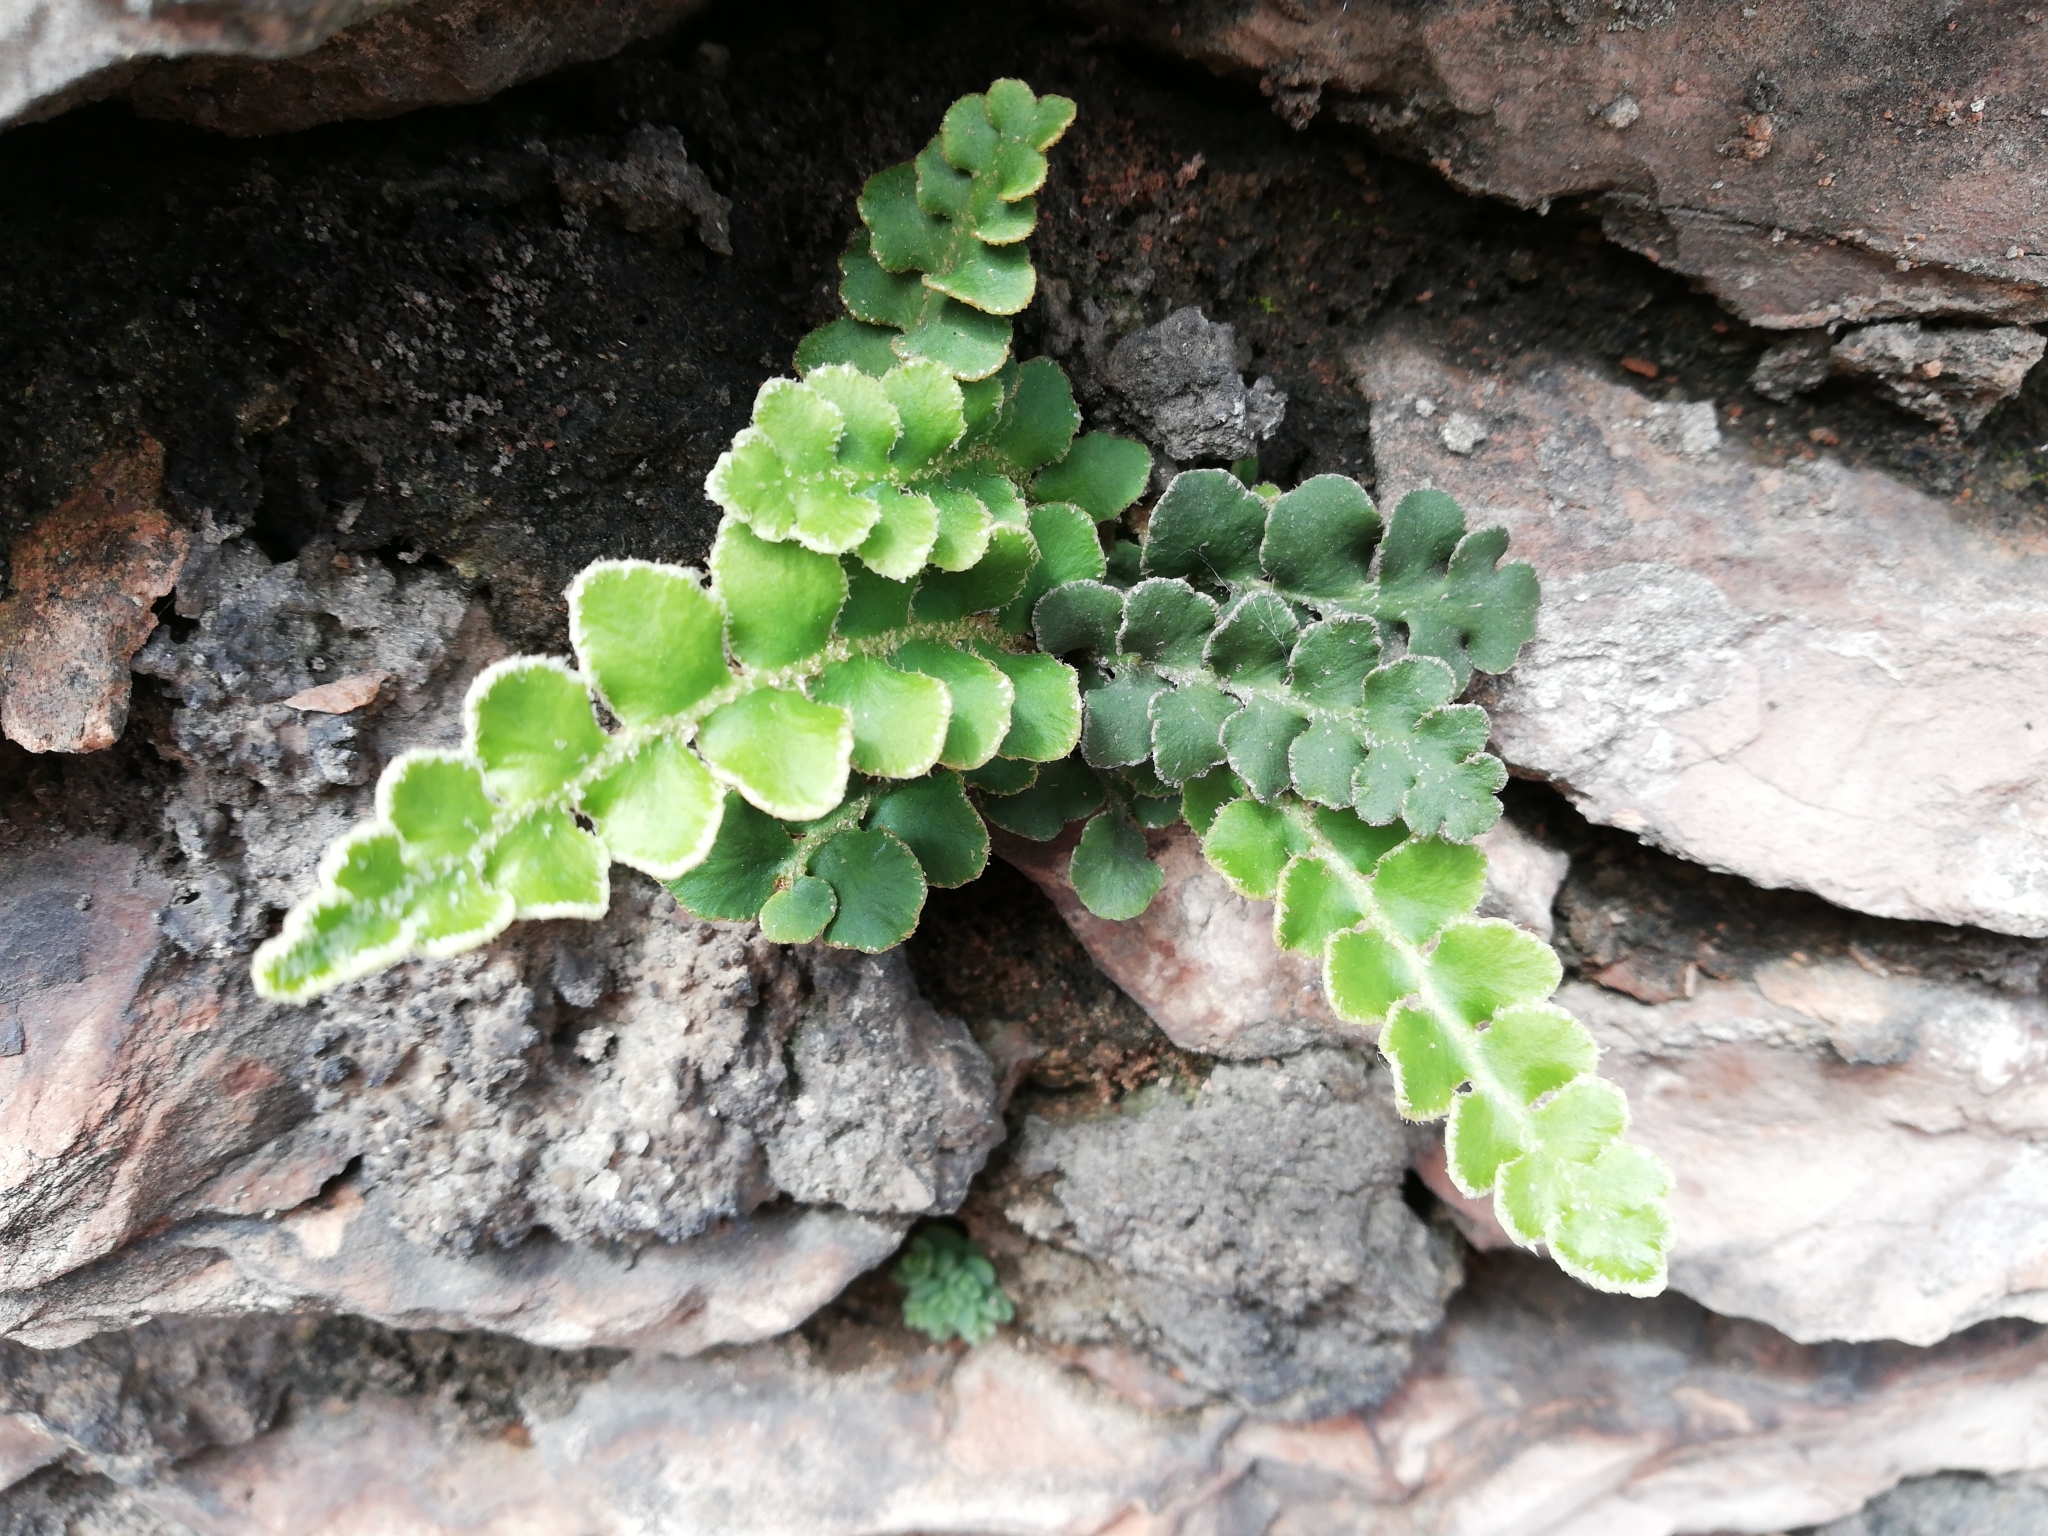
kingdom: Plantae
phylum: Tracheophyta
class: Polypodiopsida
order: Polypodiales
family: Aspleniaceae
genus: Asplenium
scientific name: Asplenium ceterach
